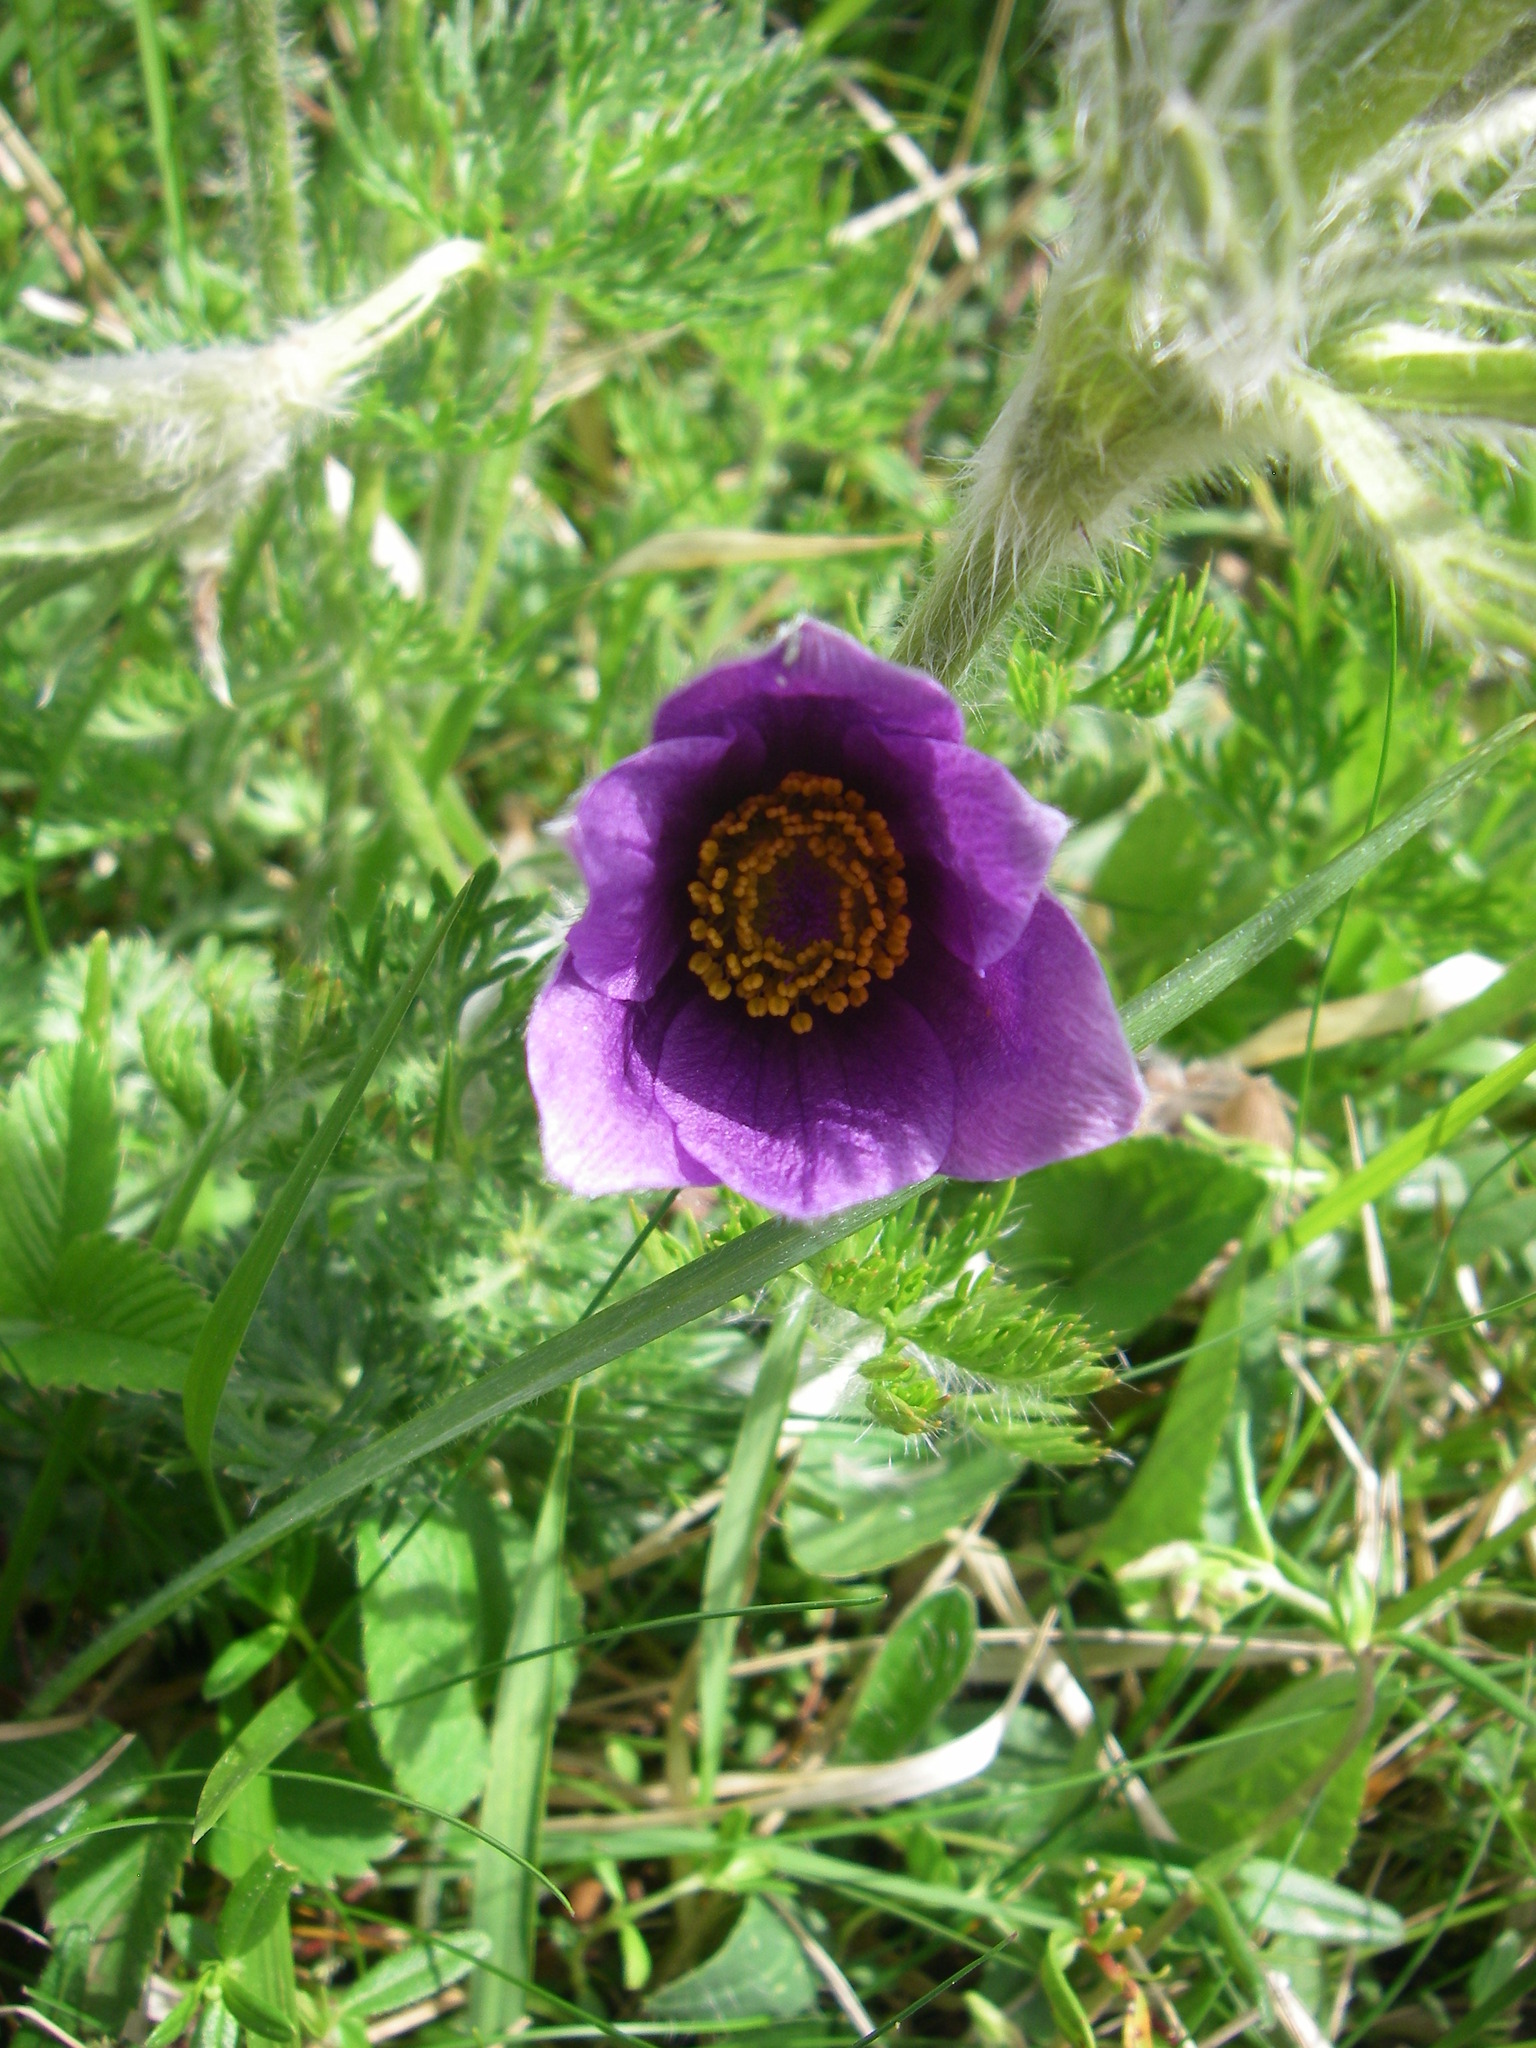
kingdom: Plantae
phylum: Tracheophyta
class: Magnoliopsida
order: Ranunculales
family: Ranunculaceae
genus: Pulsatilla
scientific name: Pulsatilla vulgaris
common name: Pasqueflower
